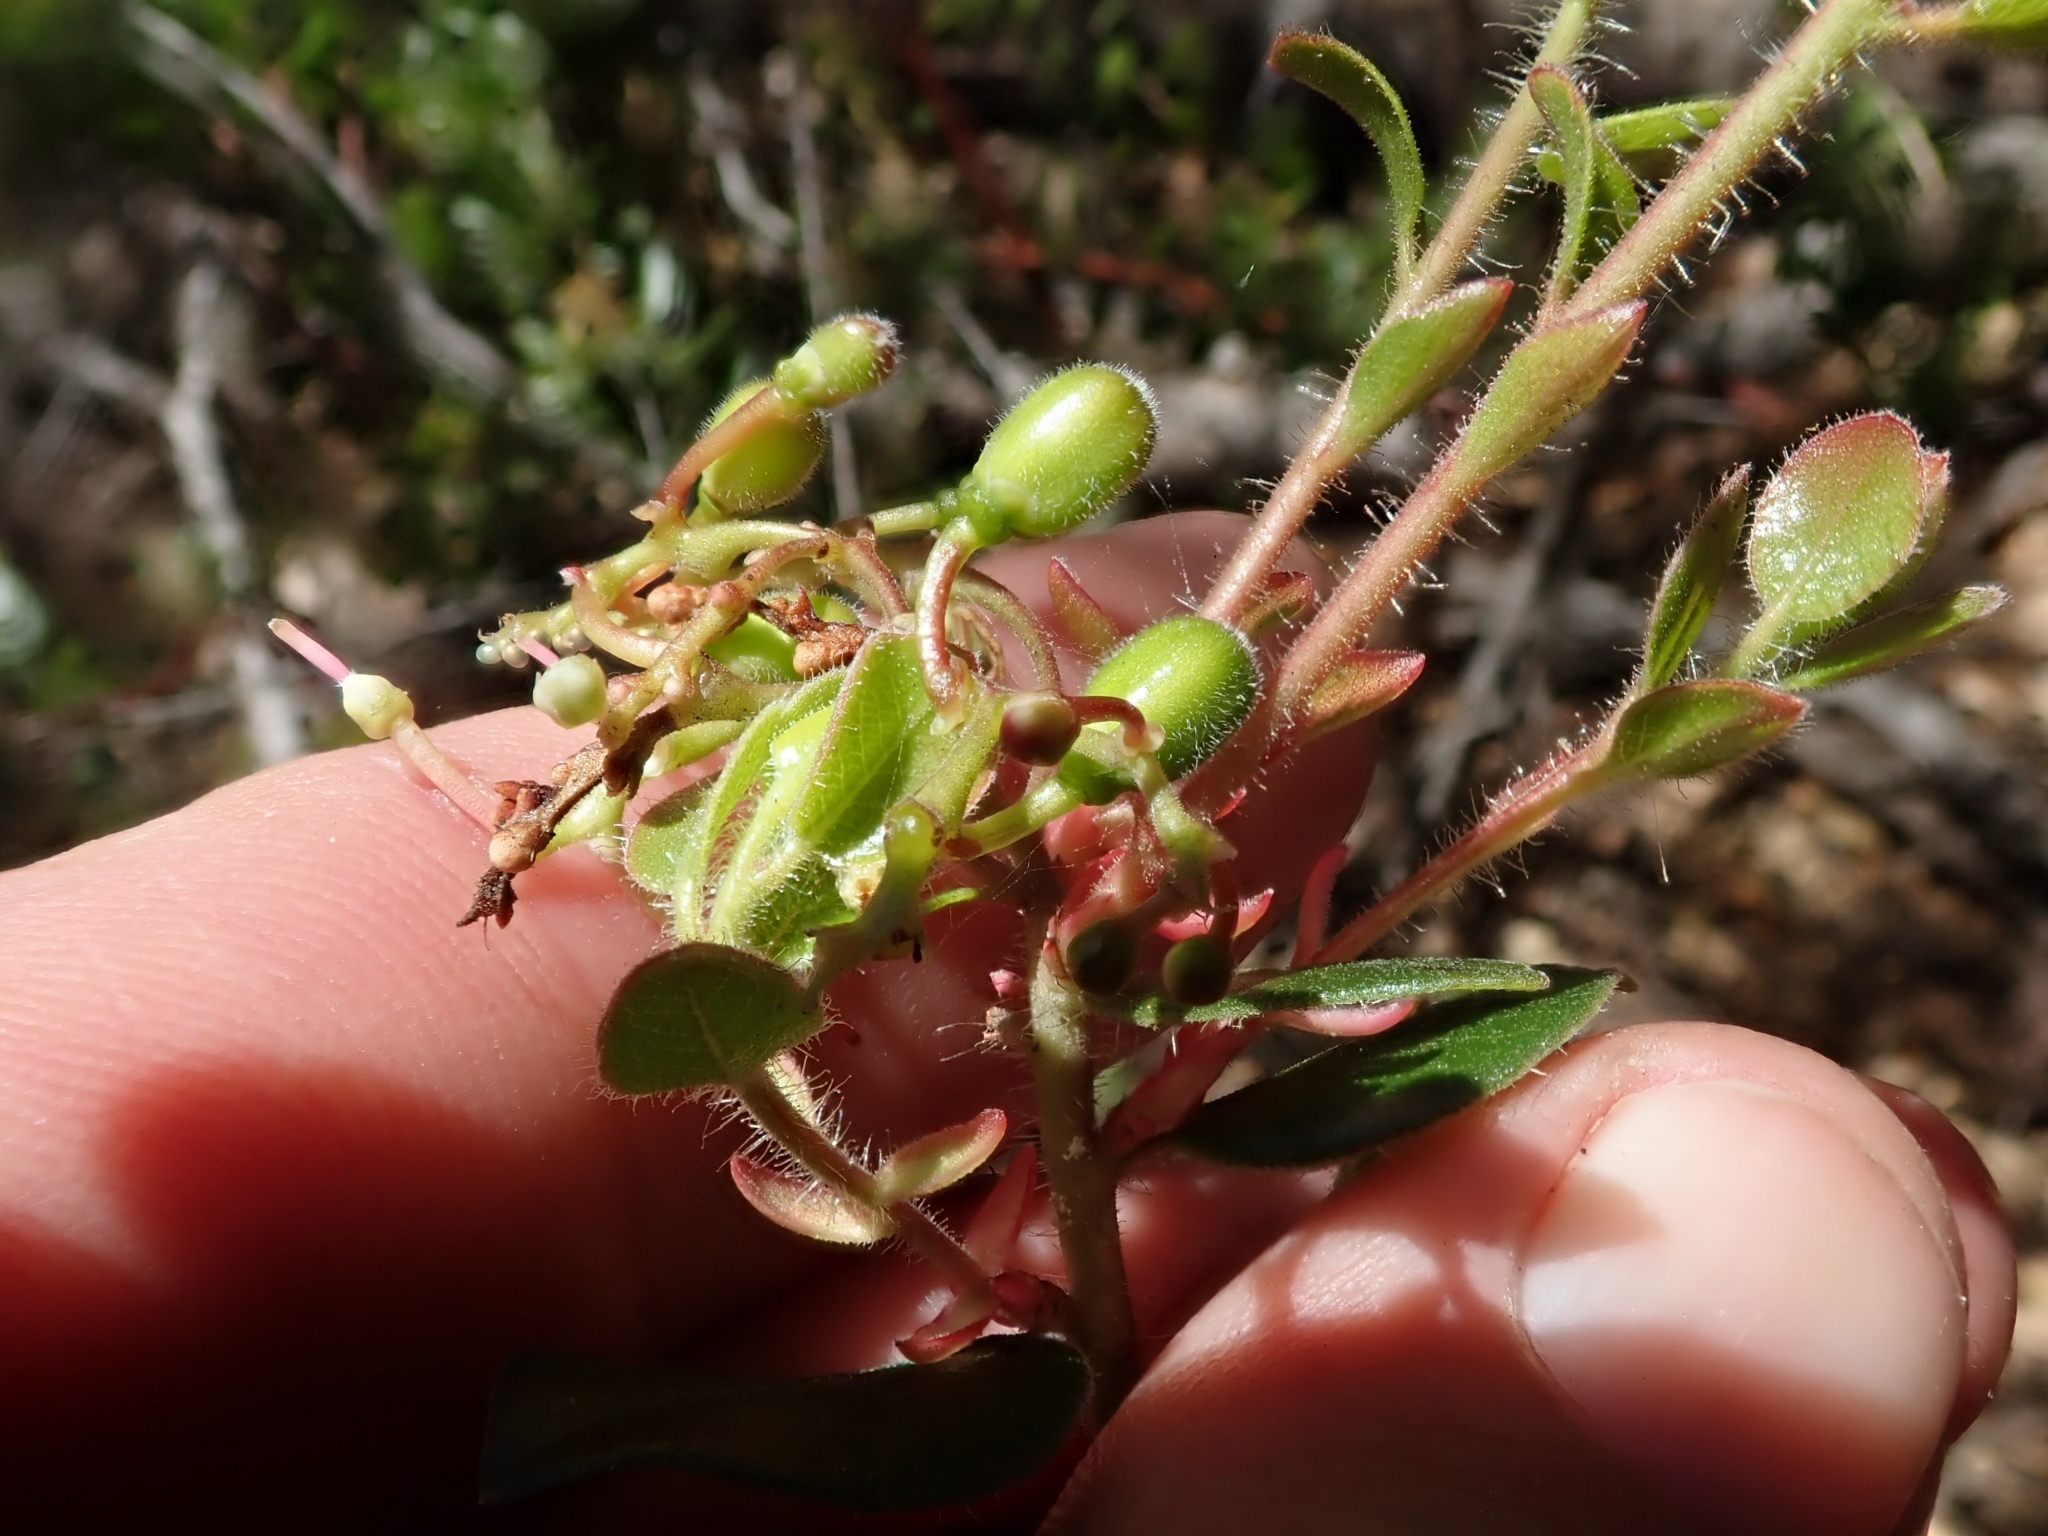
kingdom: Plantae
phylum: Tracheophyta
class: Magnoliopsida
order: Ericales
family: Ericaceae
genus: Arctostaphylos
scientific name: Arctostaphylos nummularia
